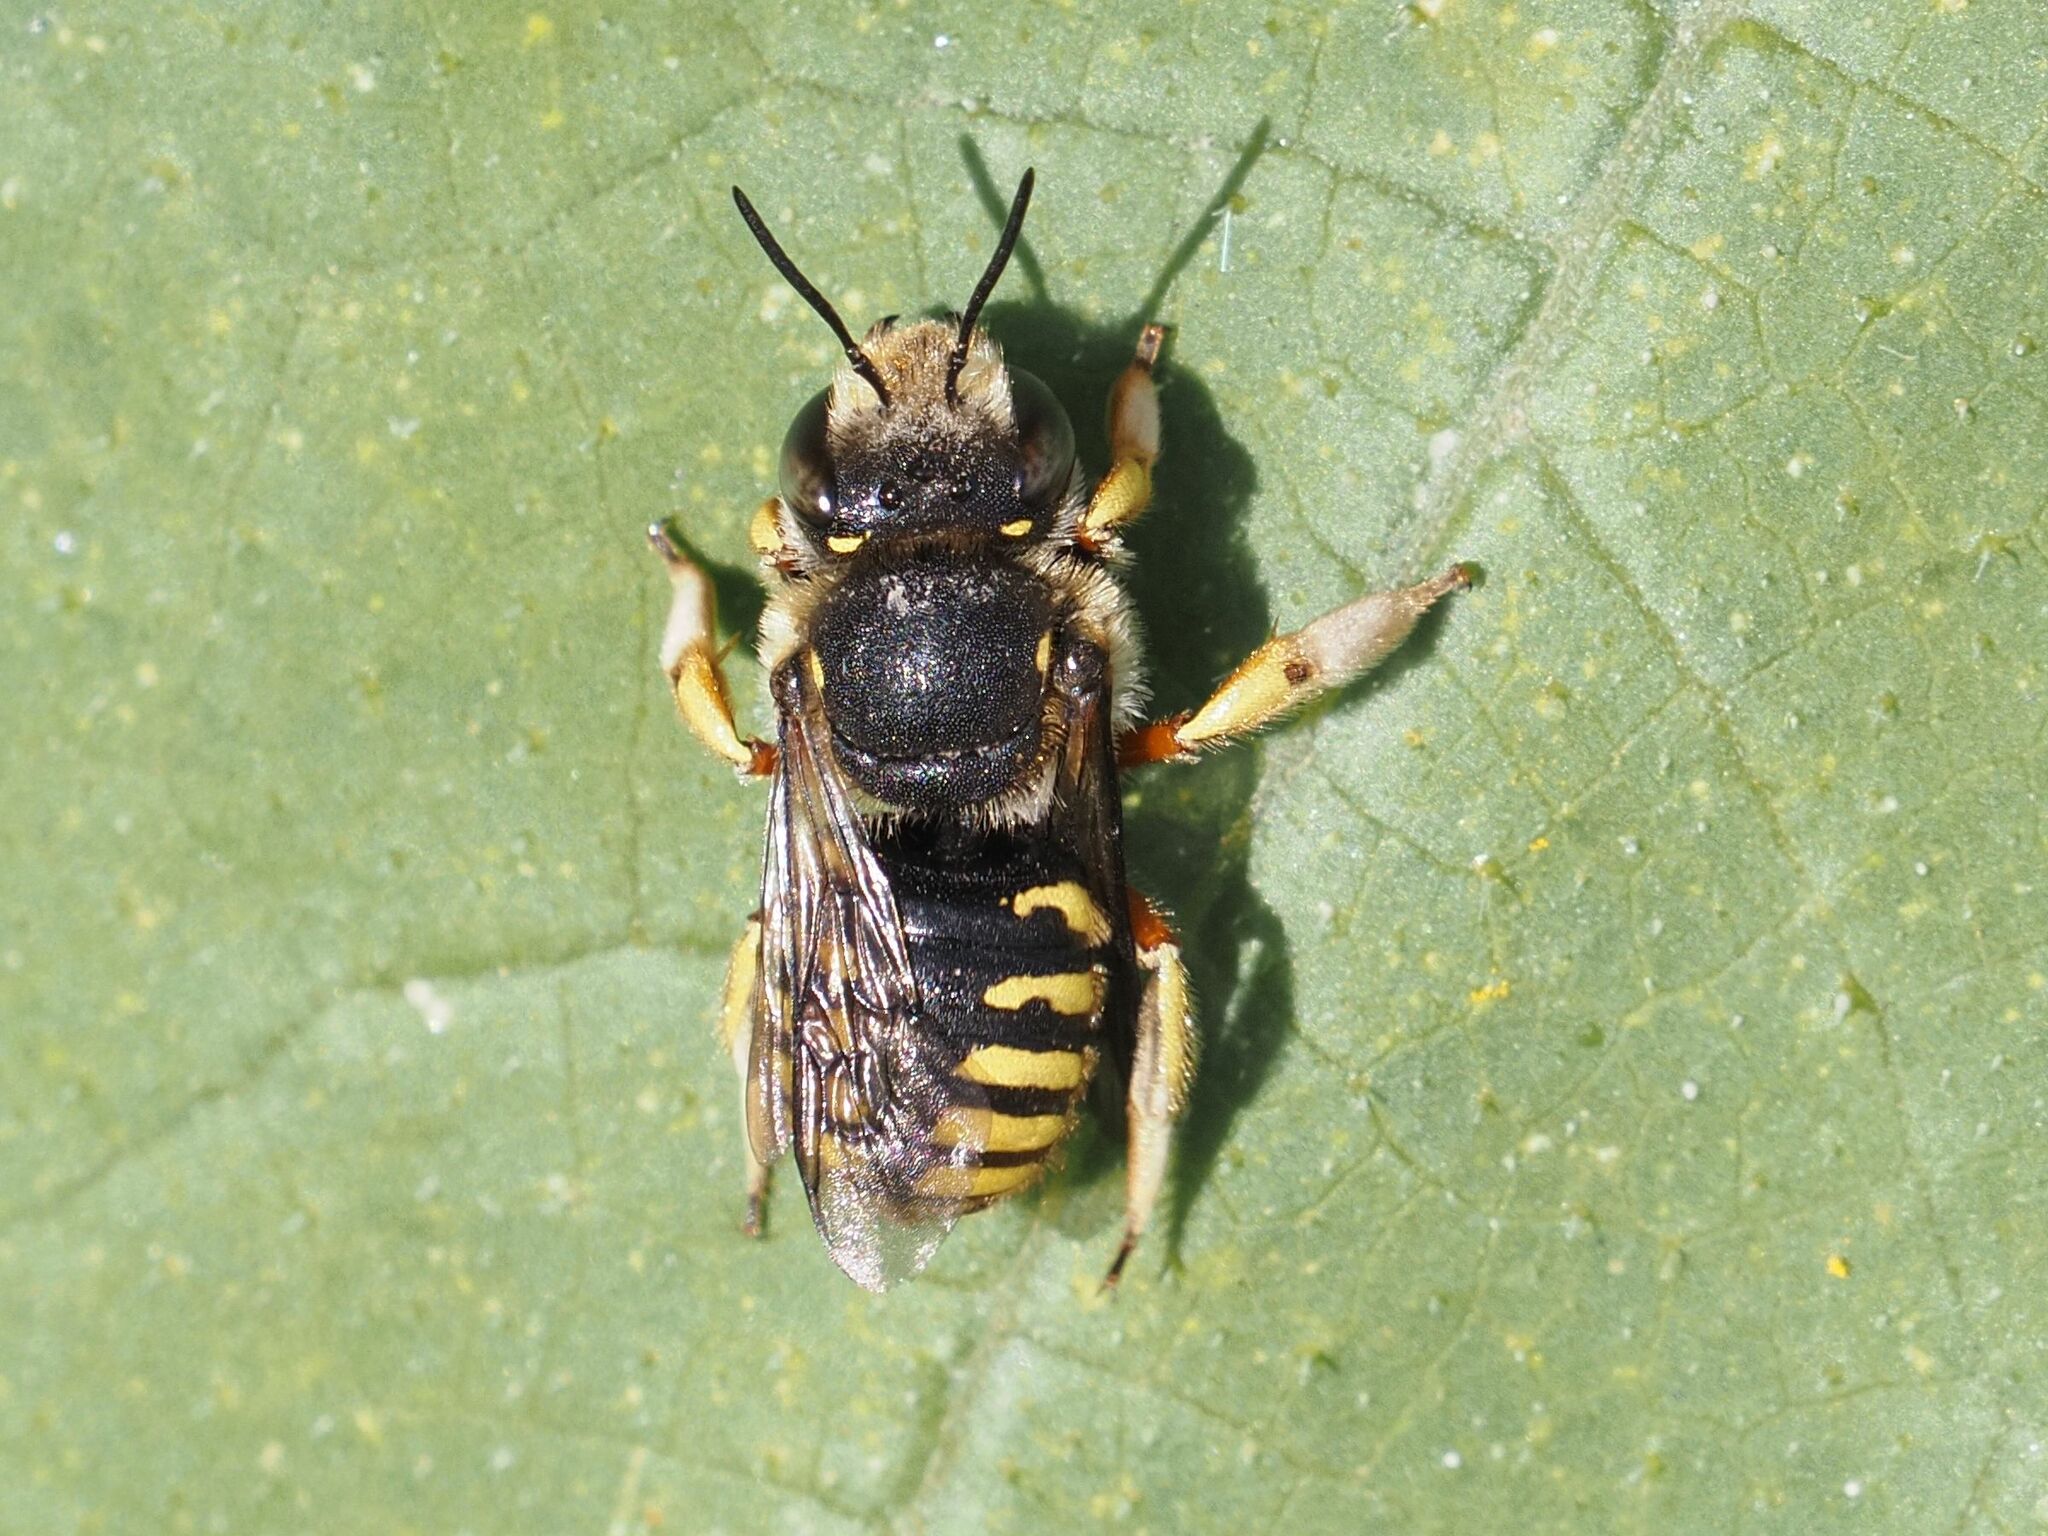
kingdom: Animalia
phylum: Arthropoda
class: Insecta
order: Hymenoptera
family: Megachilidae
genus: Anthidium
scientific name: Anthidium manicatum
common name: Wool carder bee
